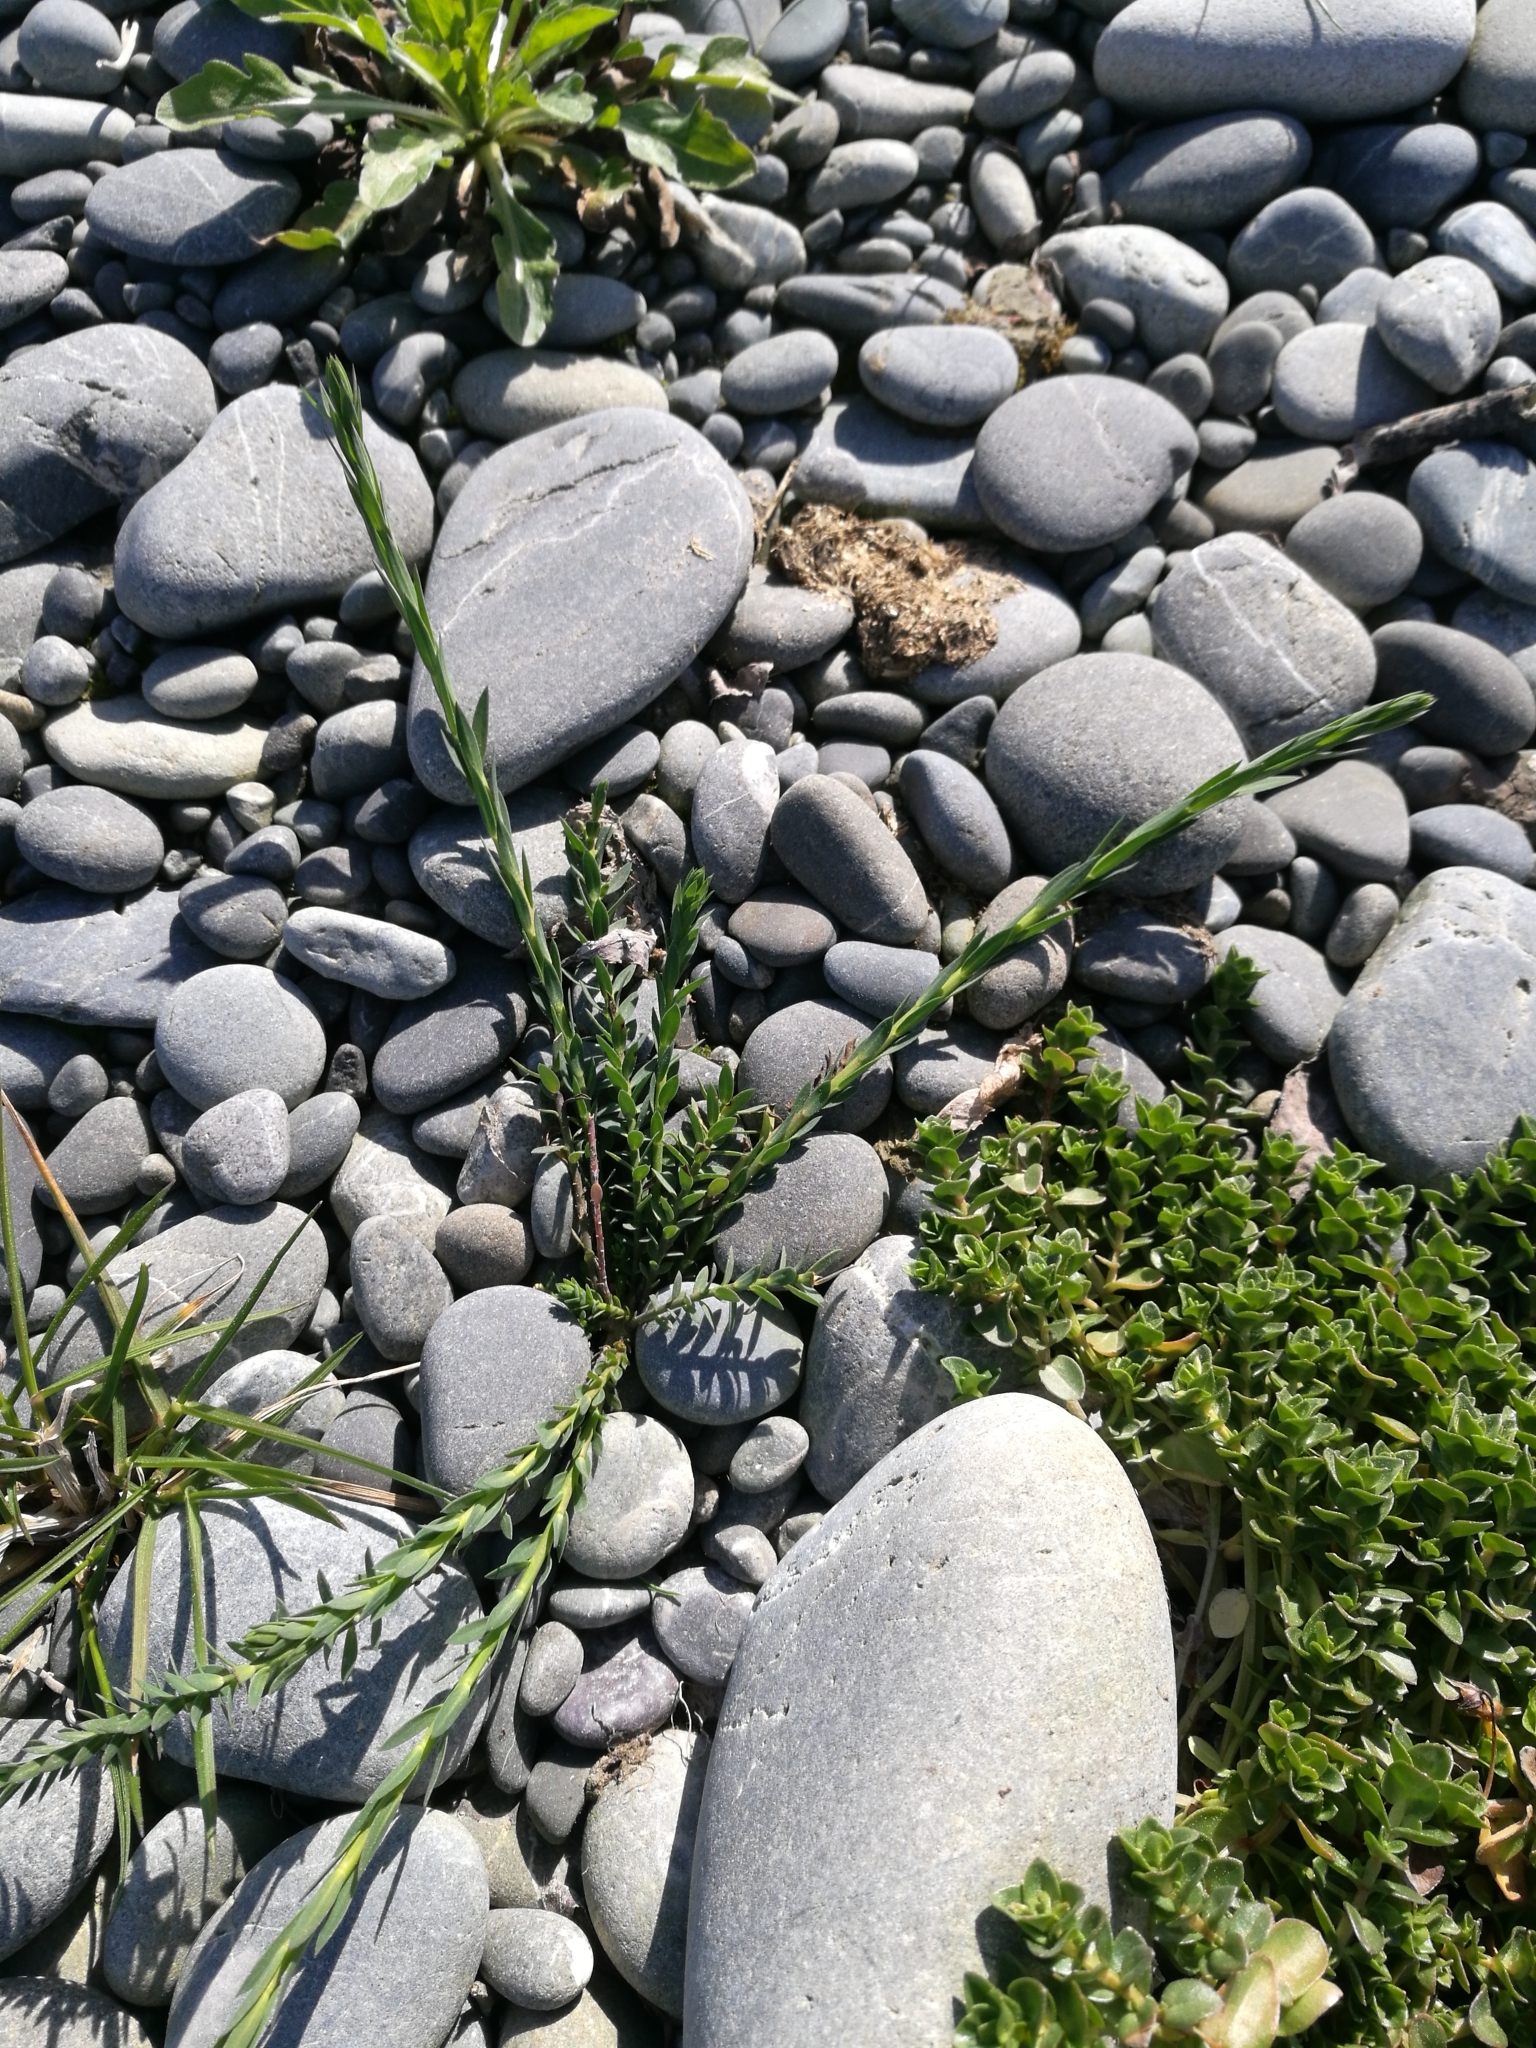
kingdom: Plantae
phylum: Tracheophyta
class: Magnoliopsida
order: Lamiales
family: Plantaginaceae
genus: Linaria
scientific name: Linaria purpurea
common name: Purple toadflax
